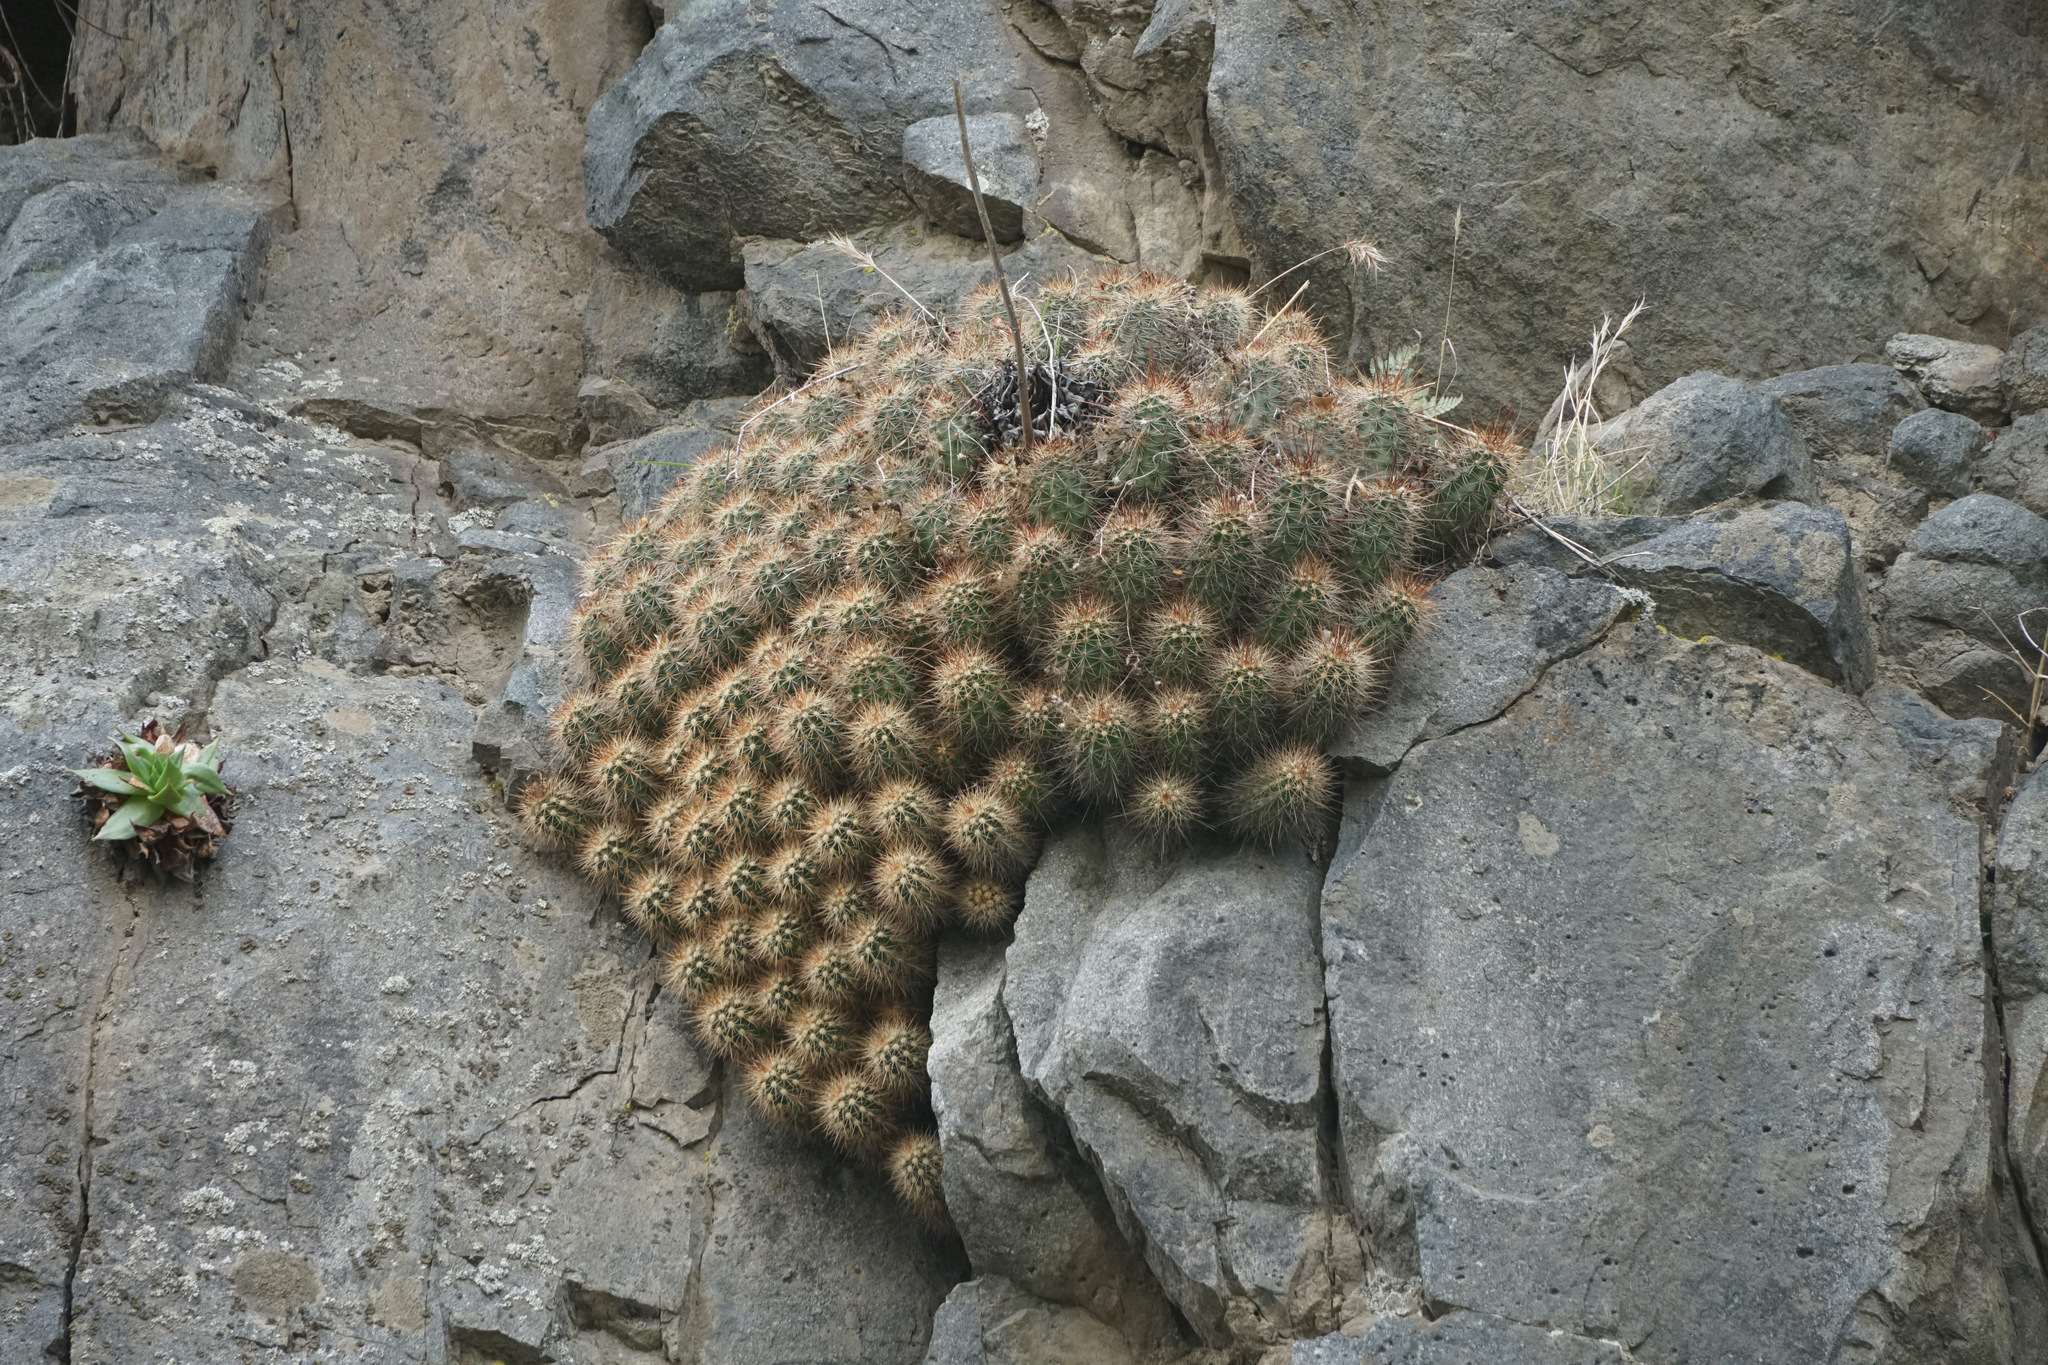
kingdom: Plantae
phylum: Tracheophyta
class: Magnoliopsida
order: Caryophyllales
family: Cactaceae
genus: Echinocereus
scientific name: Echinocereus pacificus
